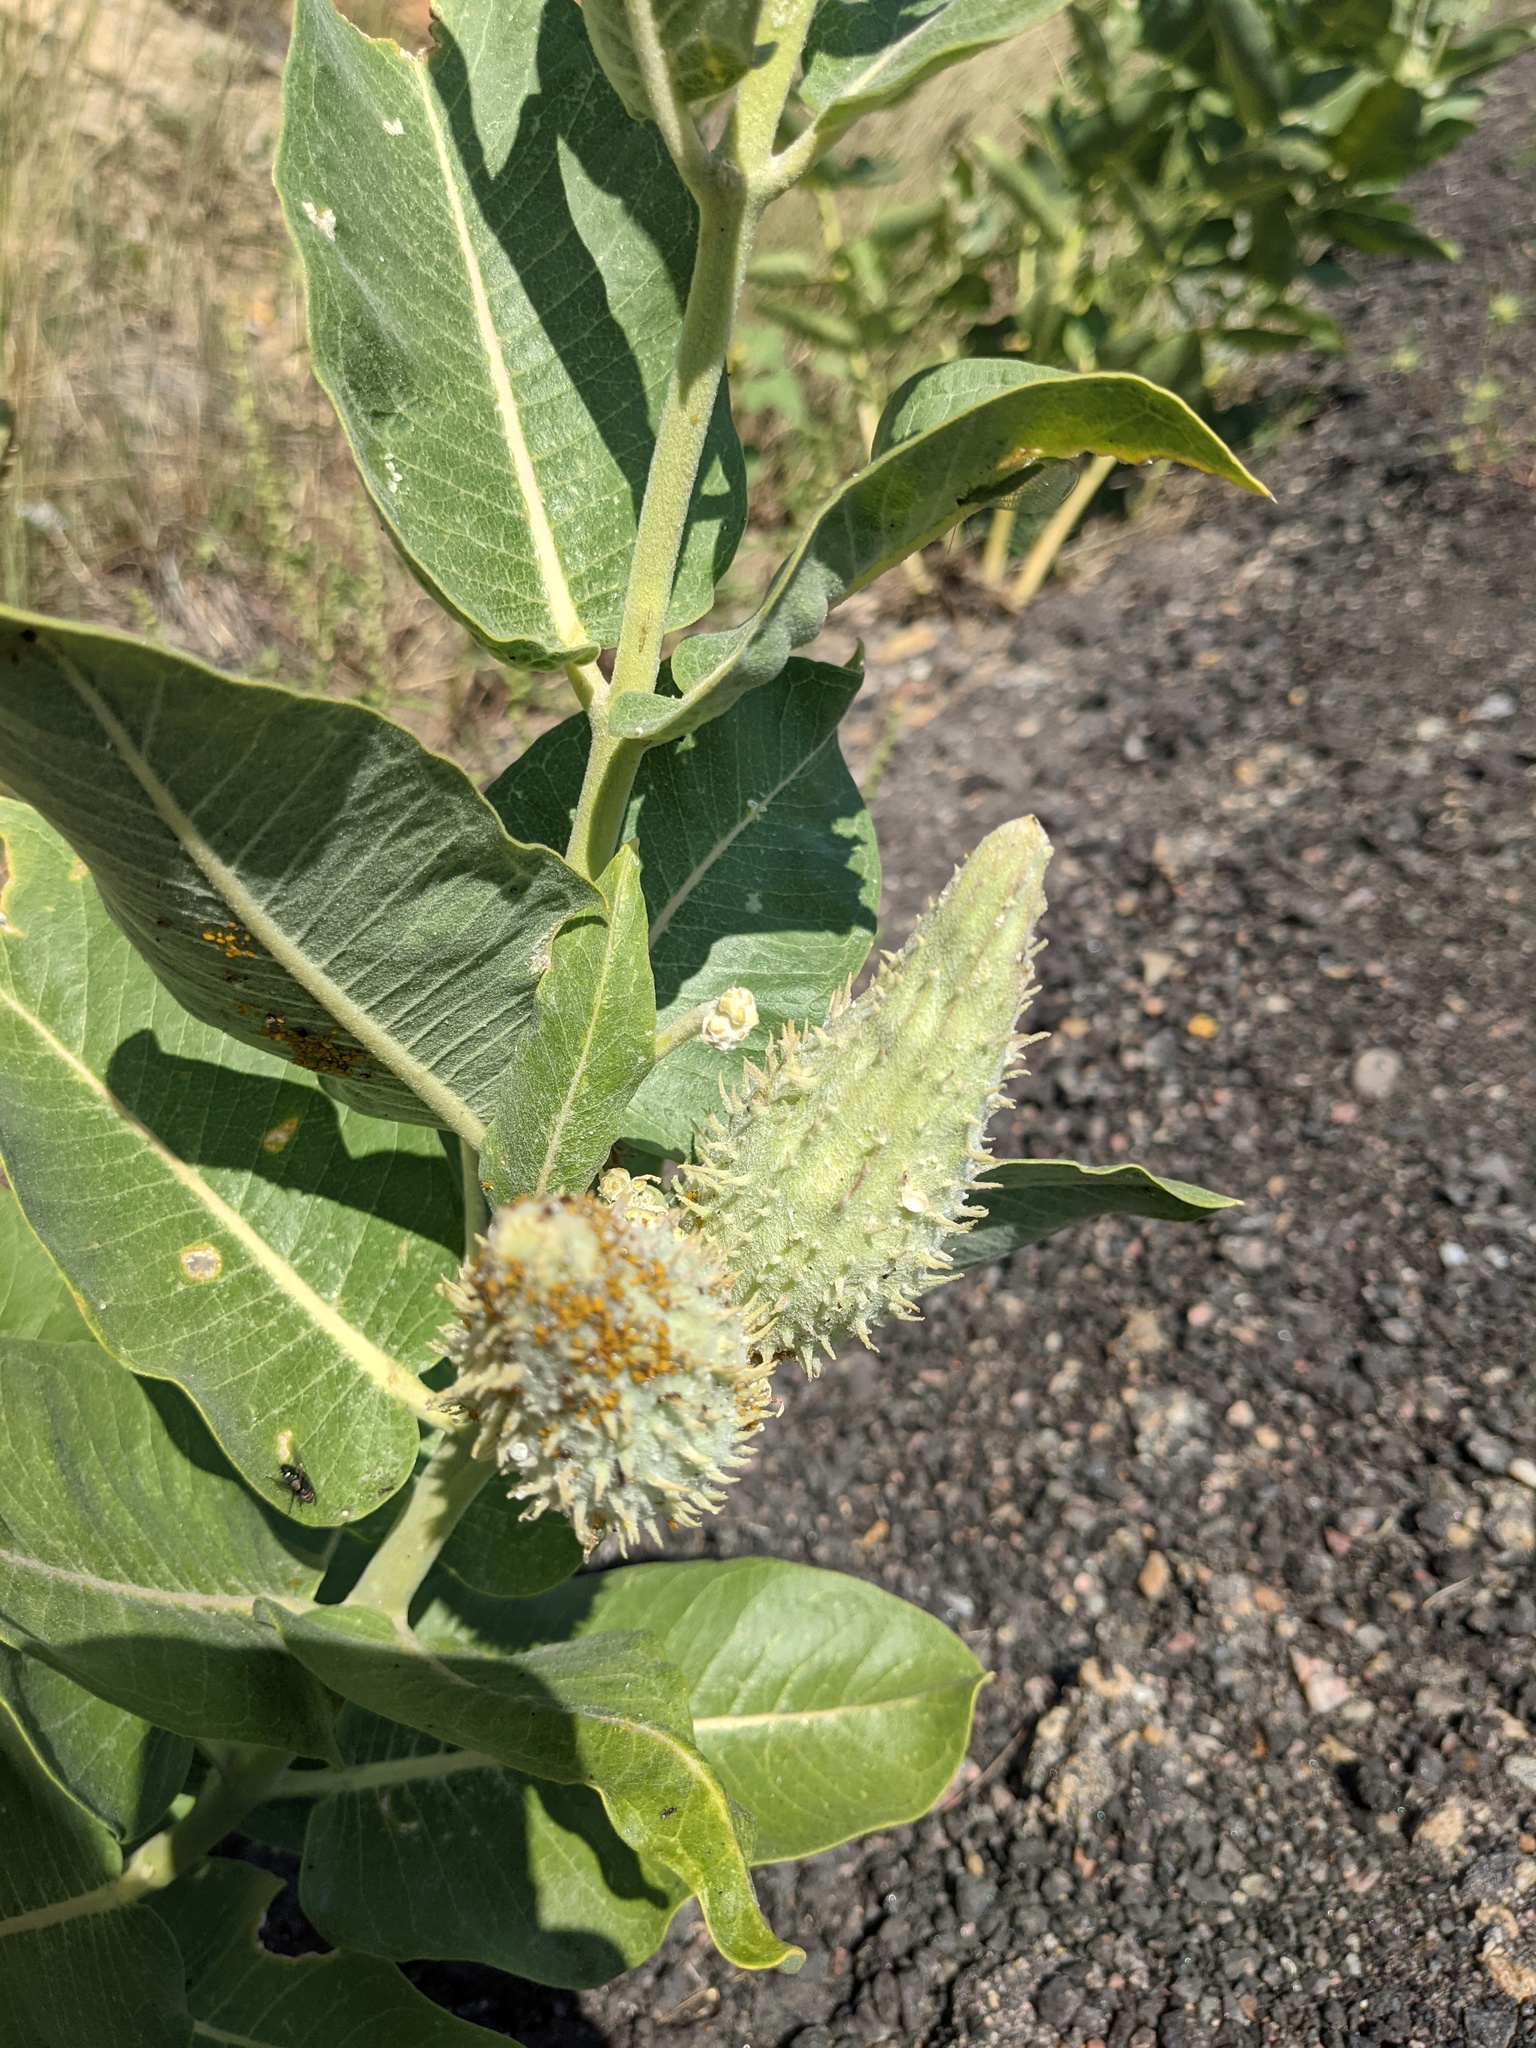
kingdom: Plantae
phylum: Tracheophyta
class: Magnoliopsida
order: Gentianales
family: Apocynaceae
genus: Asclepias
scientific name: Asclepias speciosa
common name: Showy milkweed
